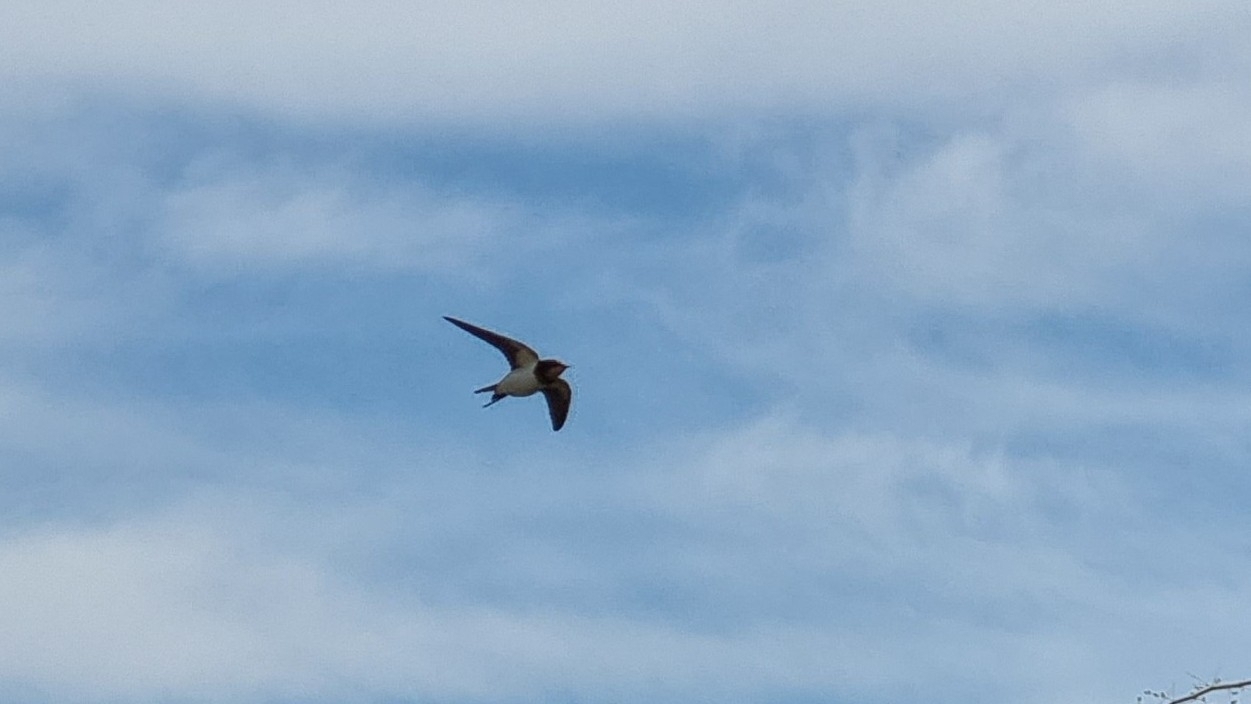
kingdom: Animalia
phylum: Chordata
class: Aves
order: Passeriformes
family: Hirundinidae
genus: Hirundo
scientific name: Hirundo rustica
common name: Barn swallow
